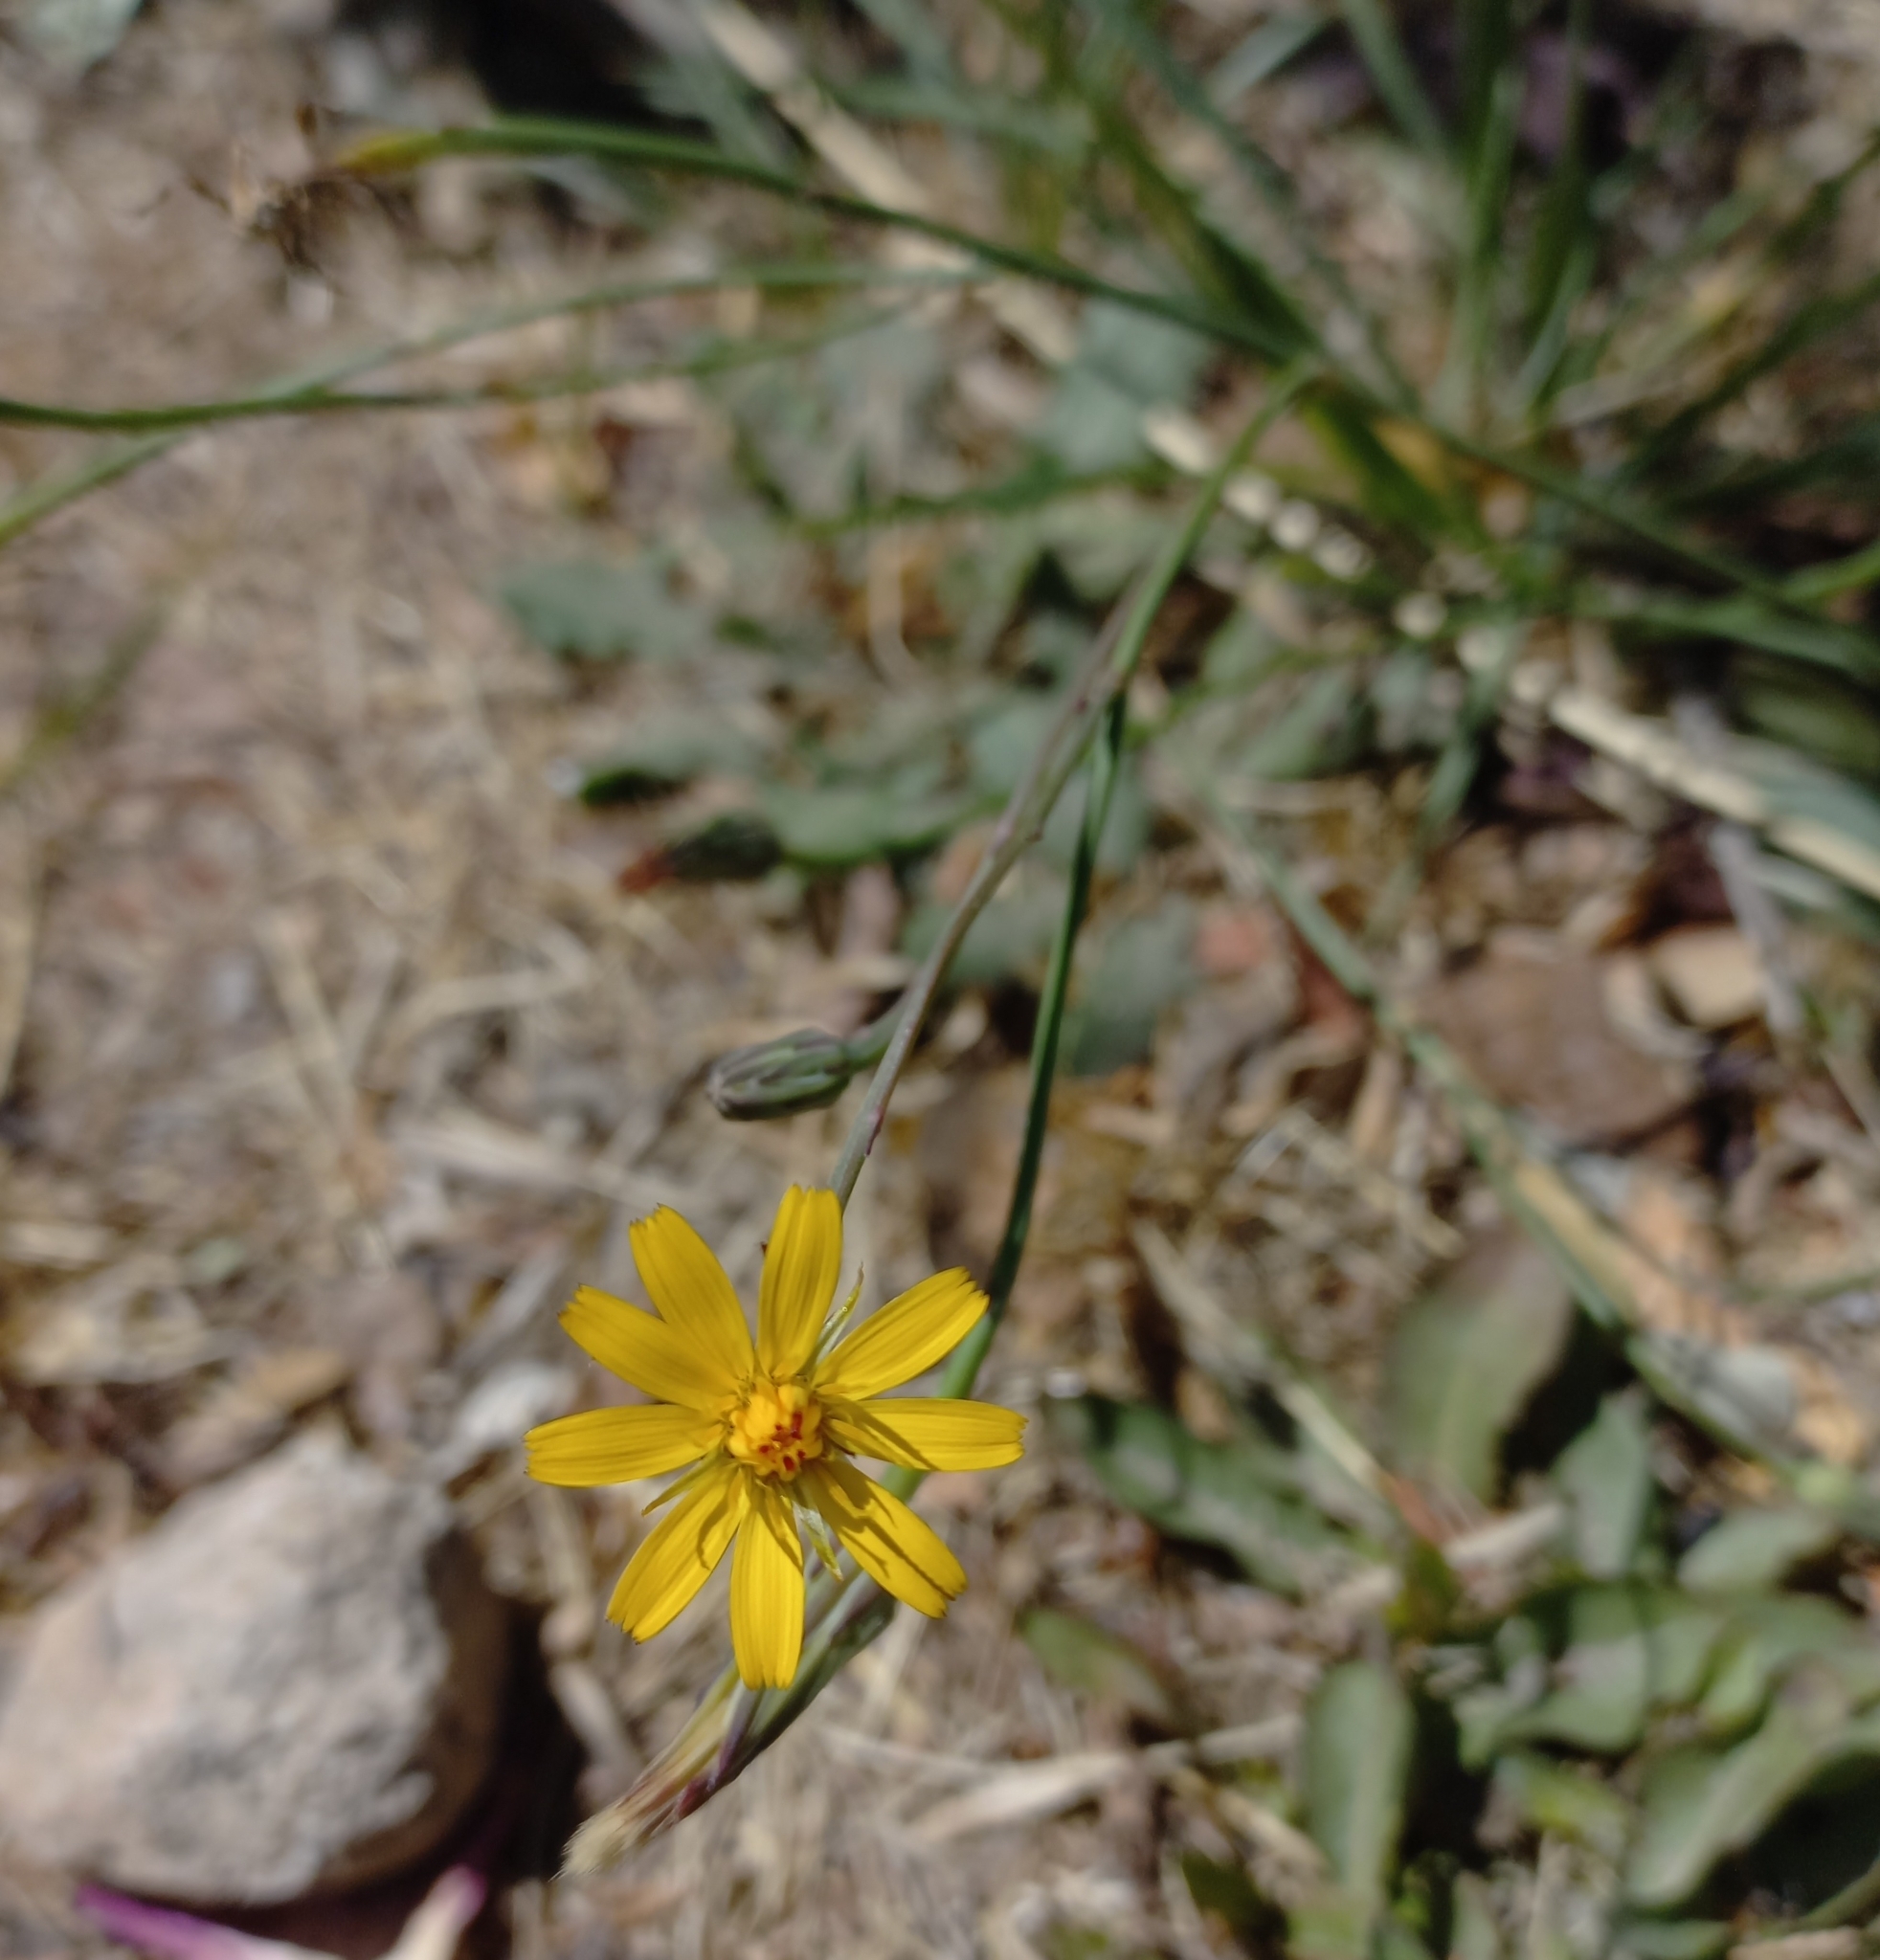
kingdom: Plantae
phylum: Tracheophyta
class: Magnoliopsida
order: Asterales
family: Asteraceae
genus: Hypochaeris
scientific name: Hypochaeris radicata
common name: Flatweed
